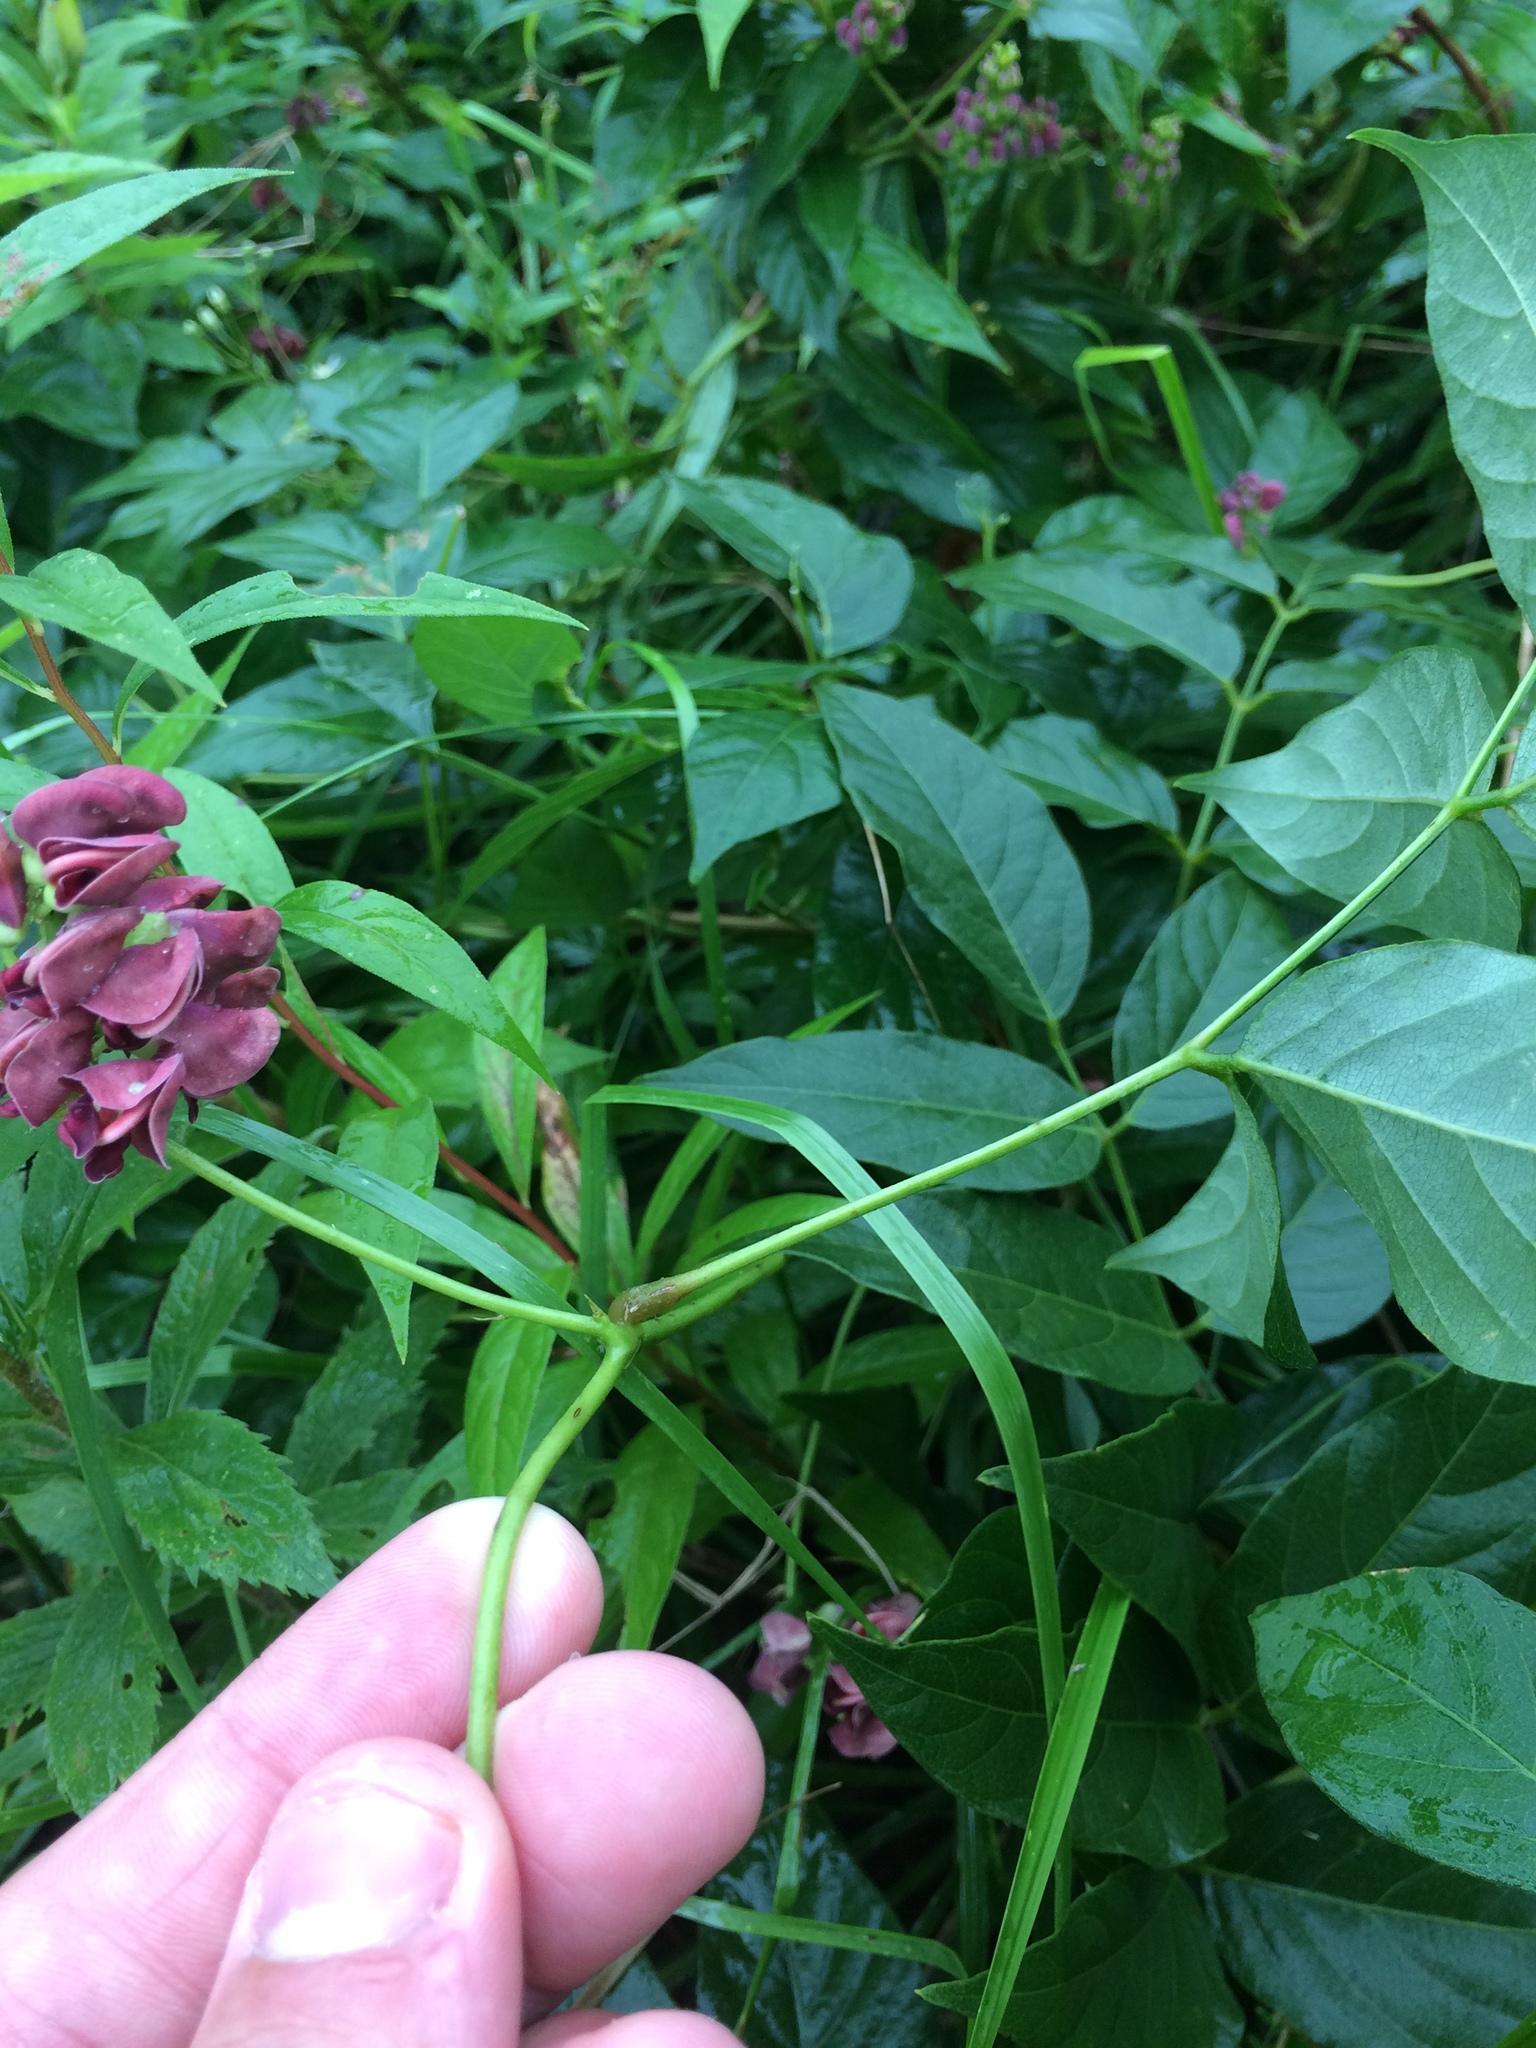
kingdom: Plantae
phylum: Tracheophyta
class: Magnoliopsida
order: Fabales
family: Fabaceae
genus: Apios
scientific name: Apios americana
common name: American potato-bean
